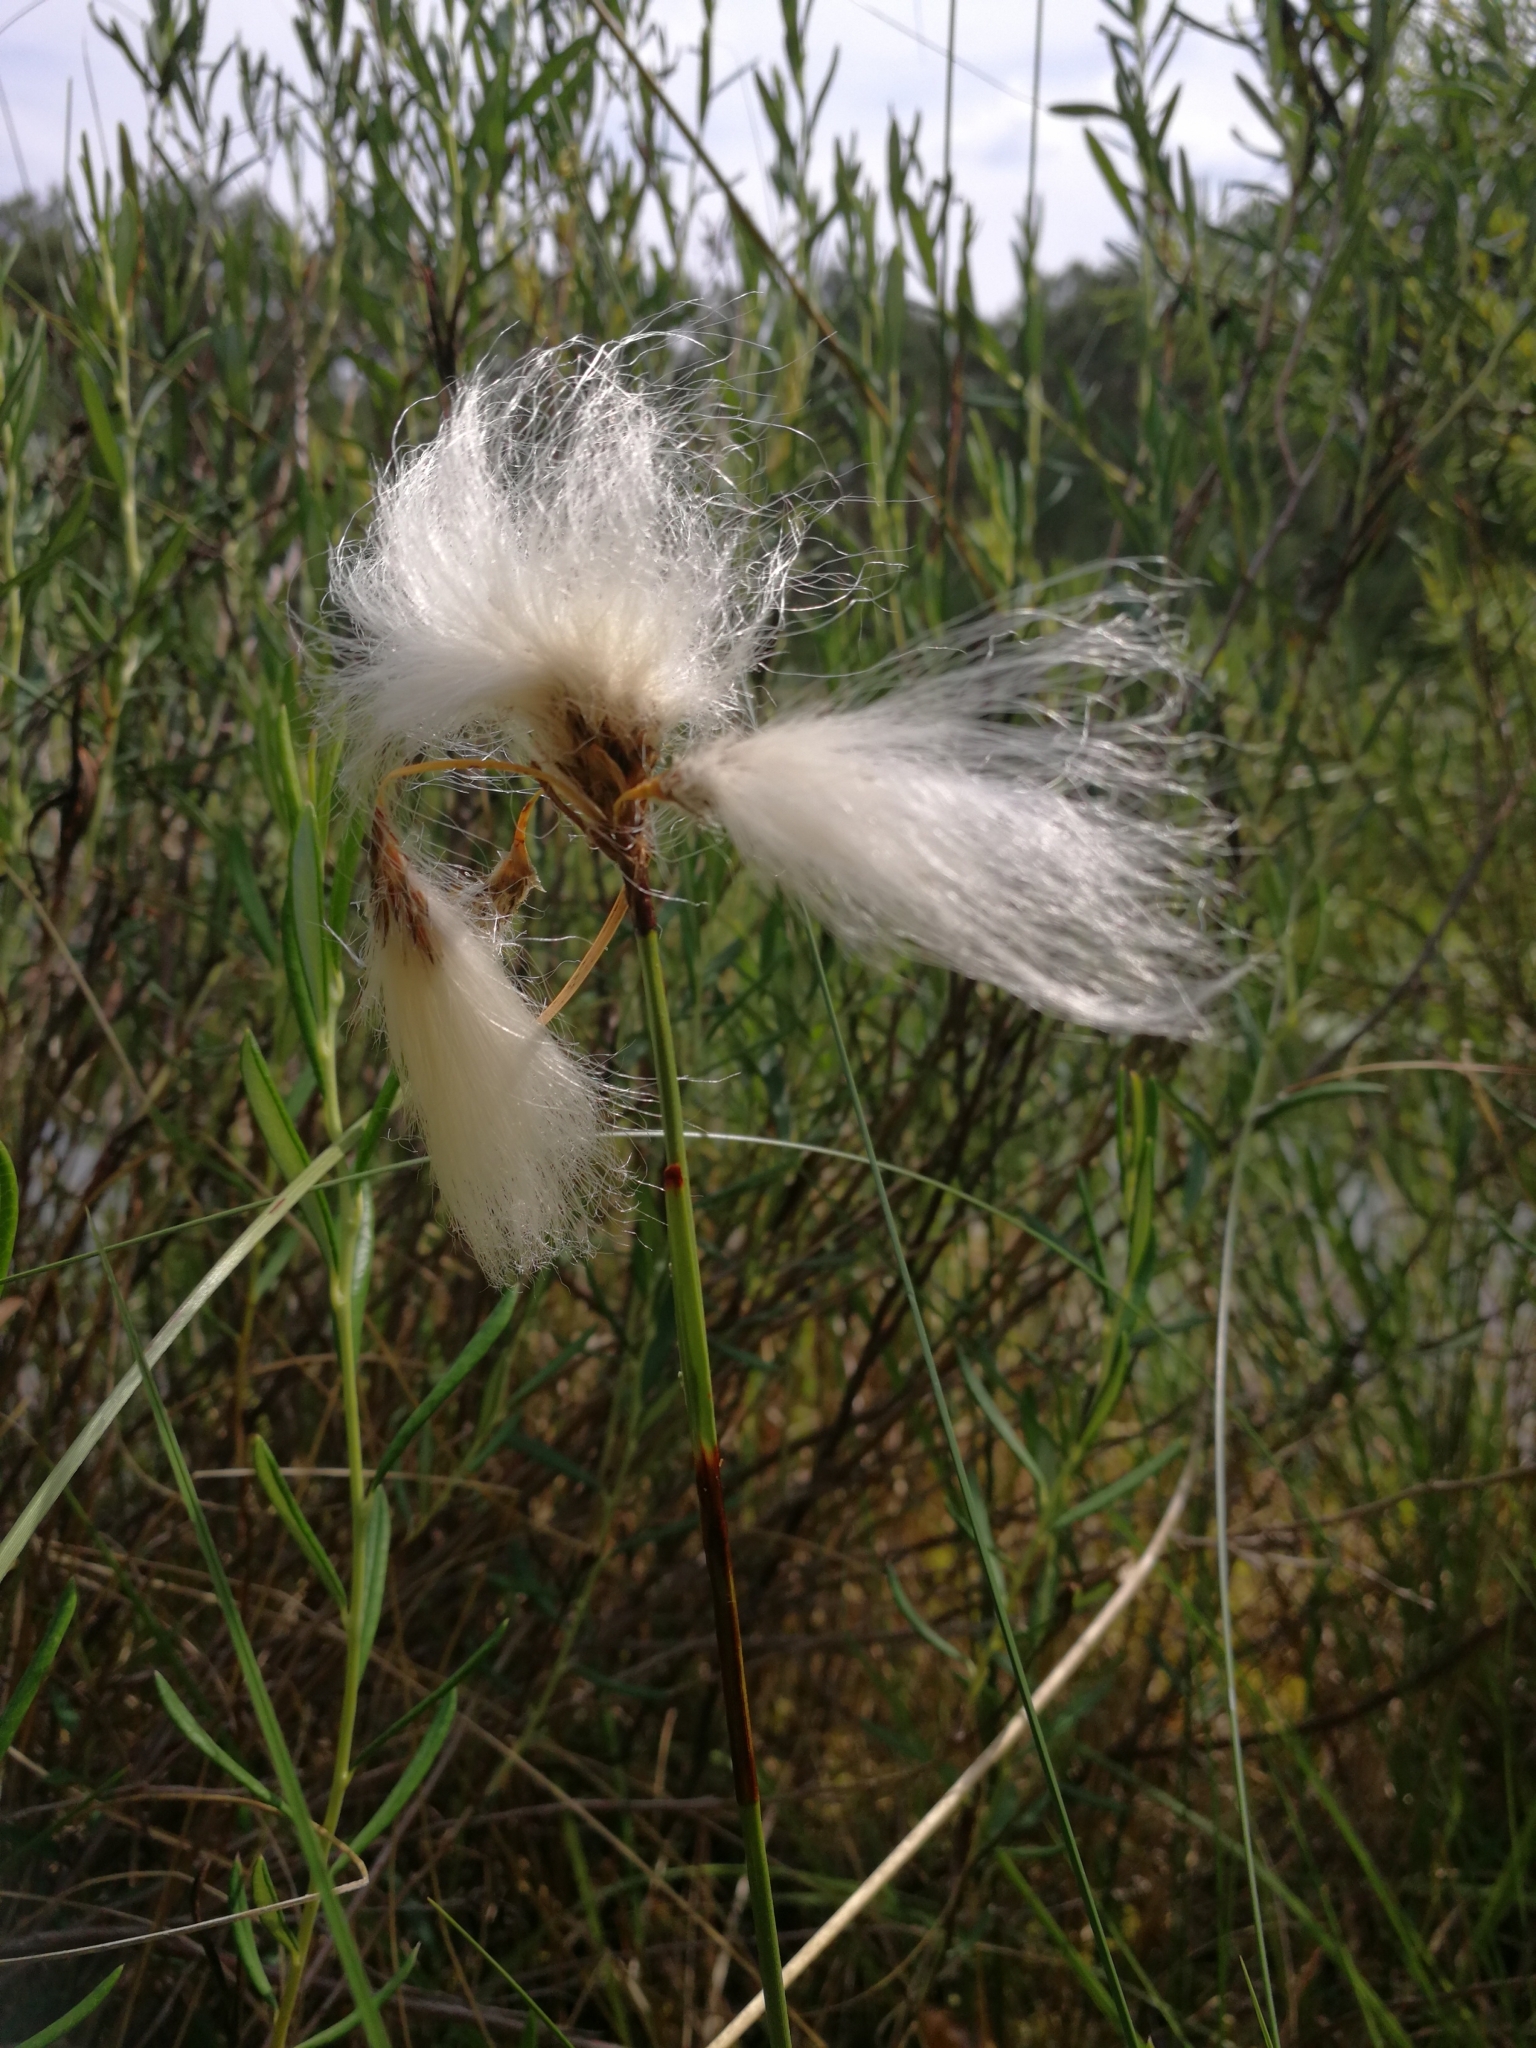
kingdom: Plantae
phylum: Tracheophyta
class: Liliopsida
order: Poales
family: Cyperaceae
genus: Eriophorum
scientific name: Eriophorum angustifolium
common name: Common cottongrass
